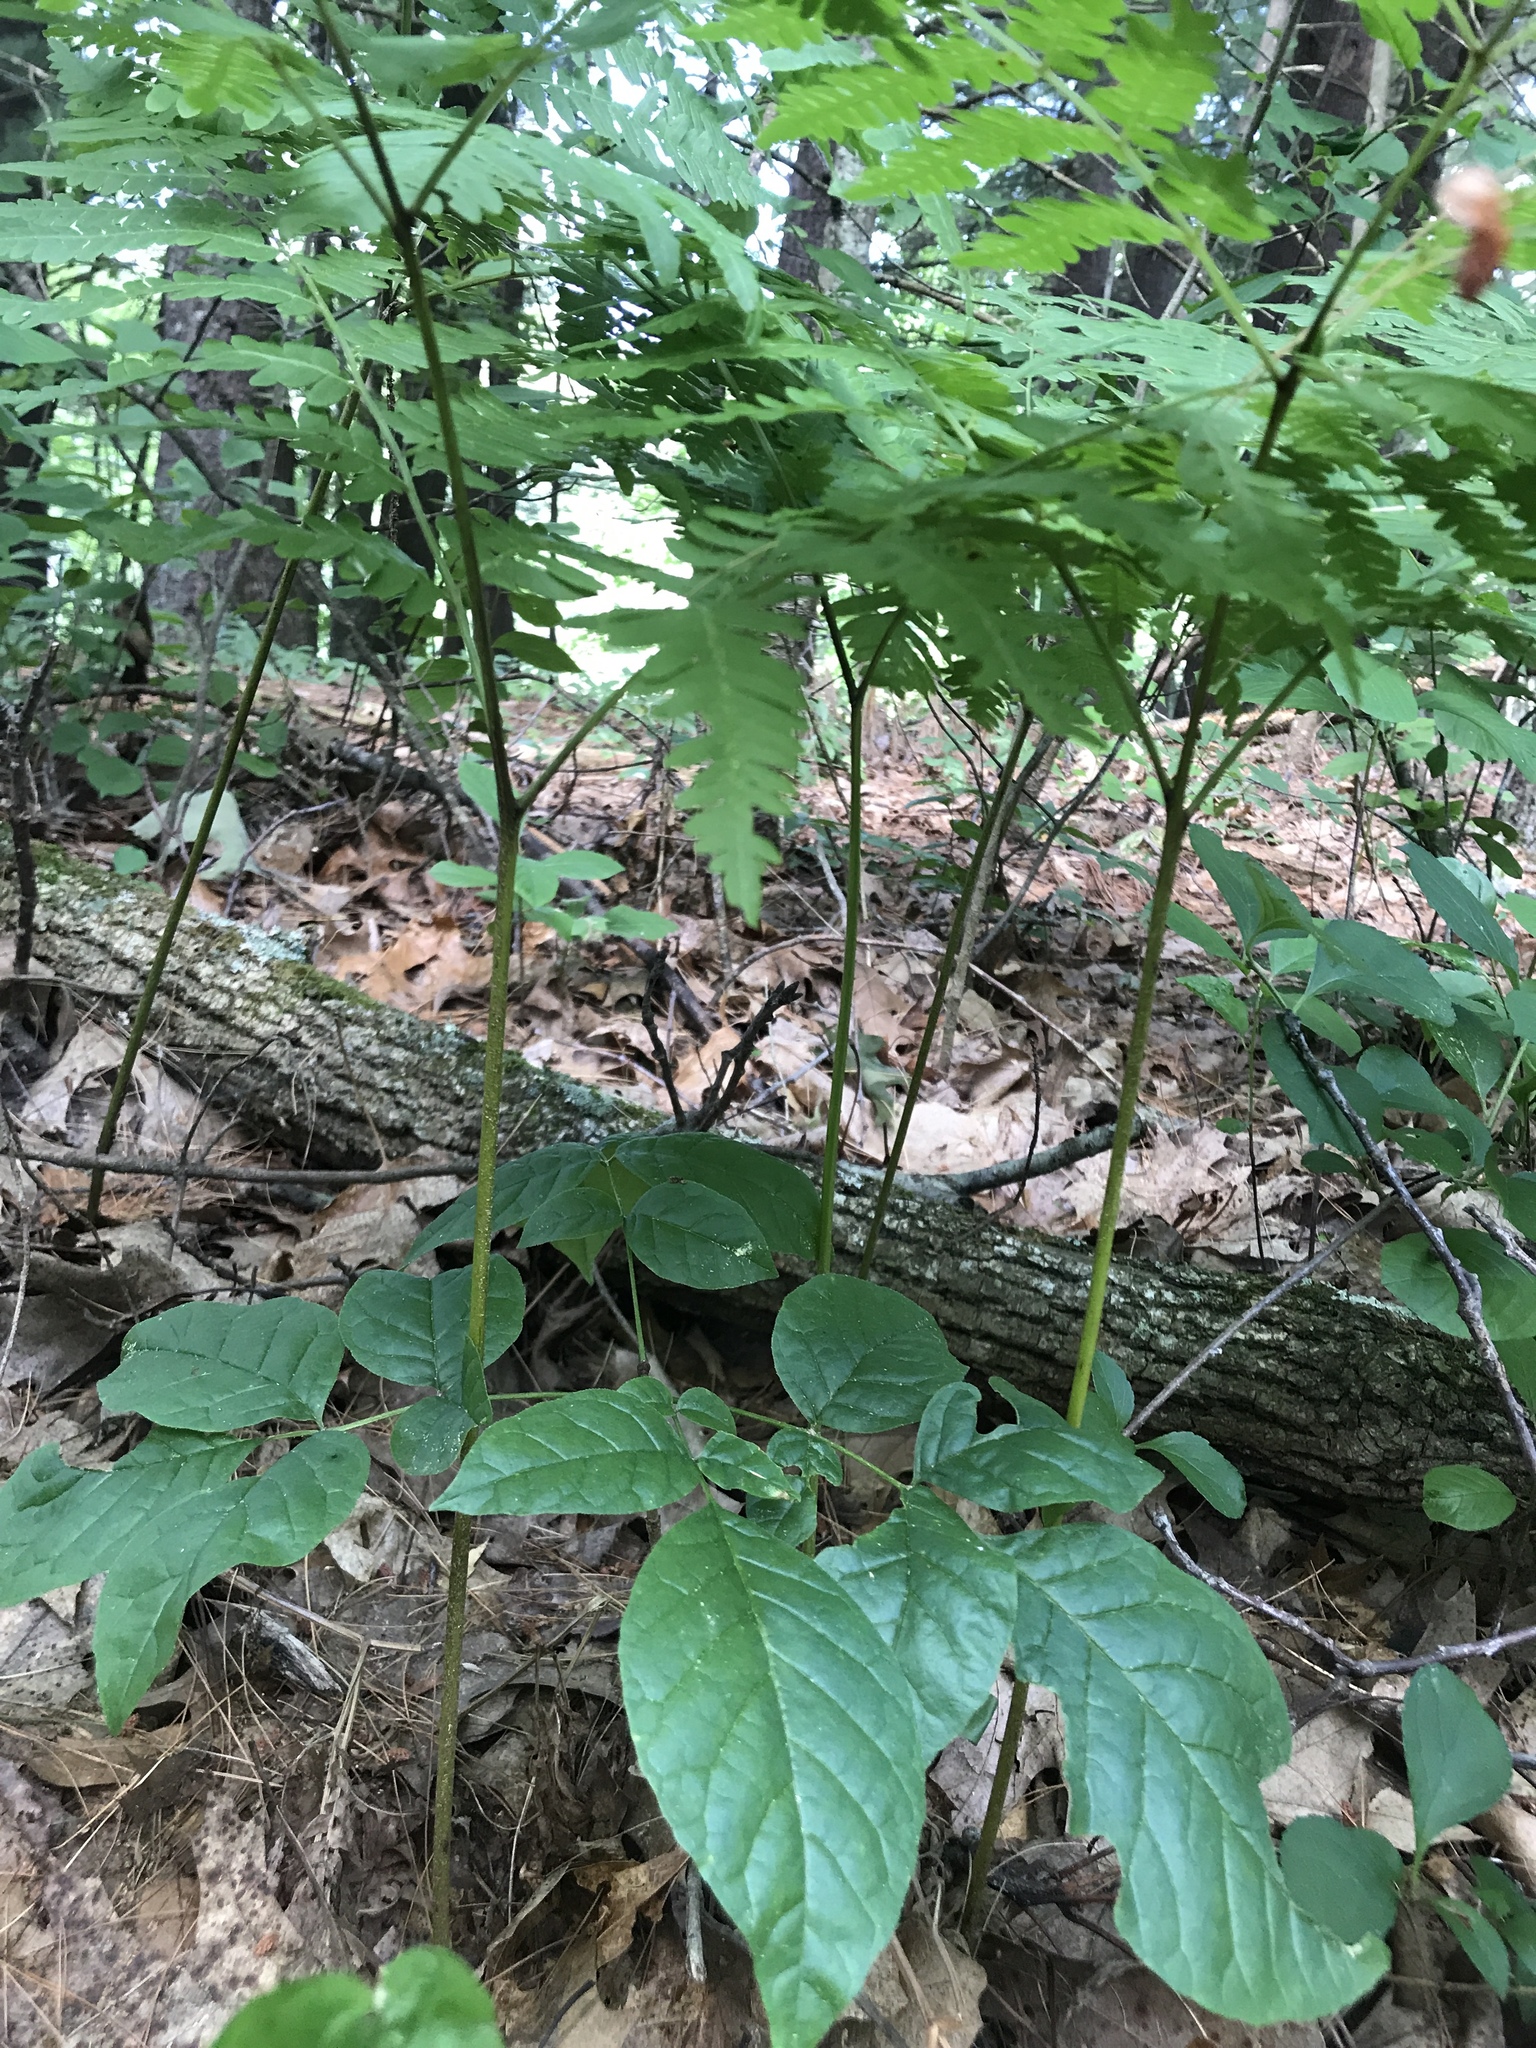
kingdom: Plantae
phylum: Tracheophyta
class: Polypodiopsida
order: Polypodiales
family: Dennstaedtiaceae
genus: Pteridium
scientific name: Pteridium aquilinum
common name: Bracken
